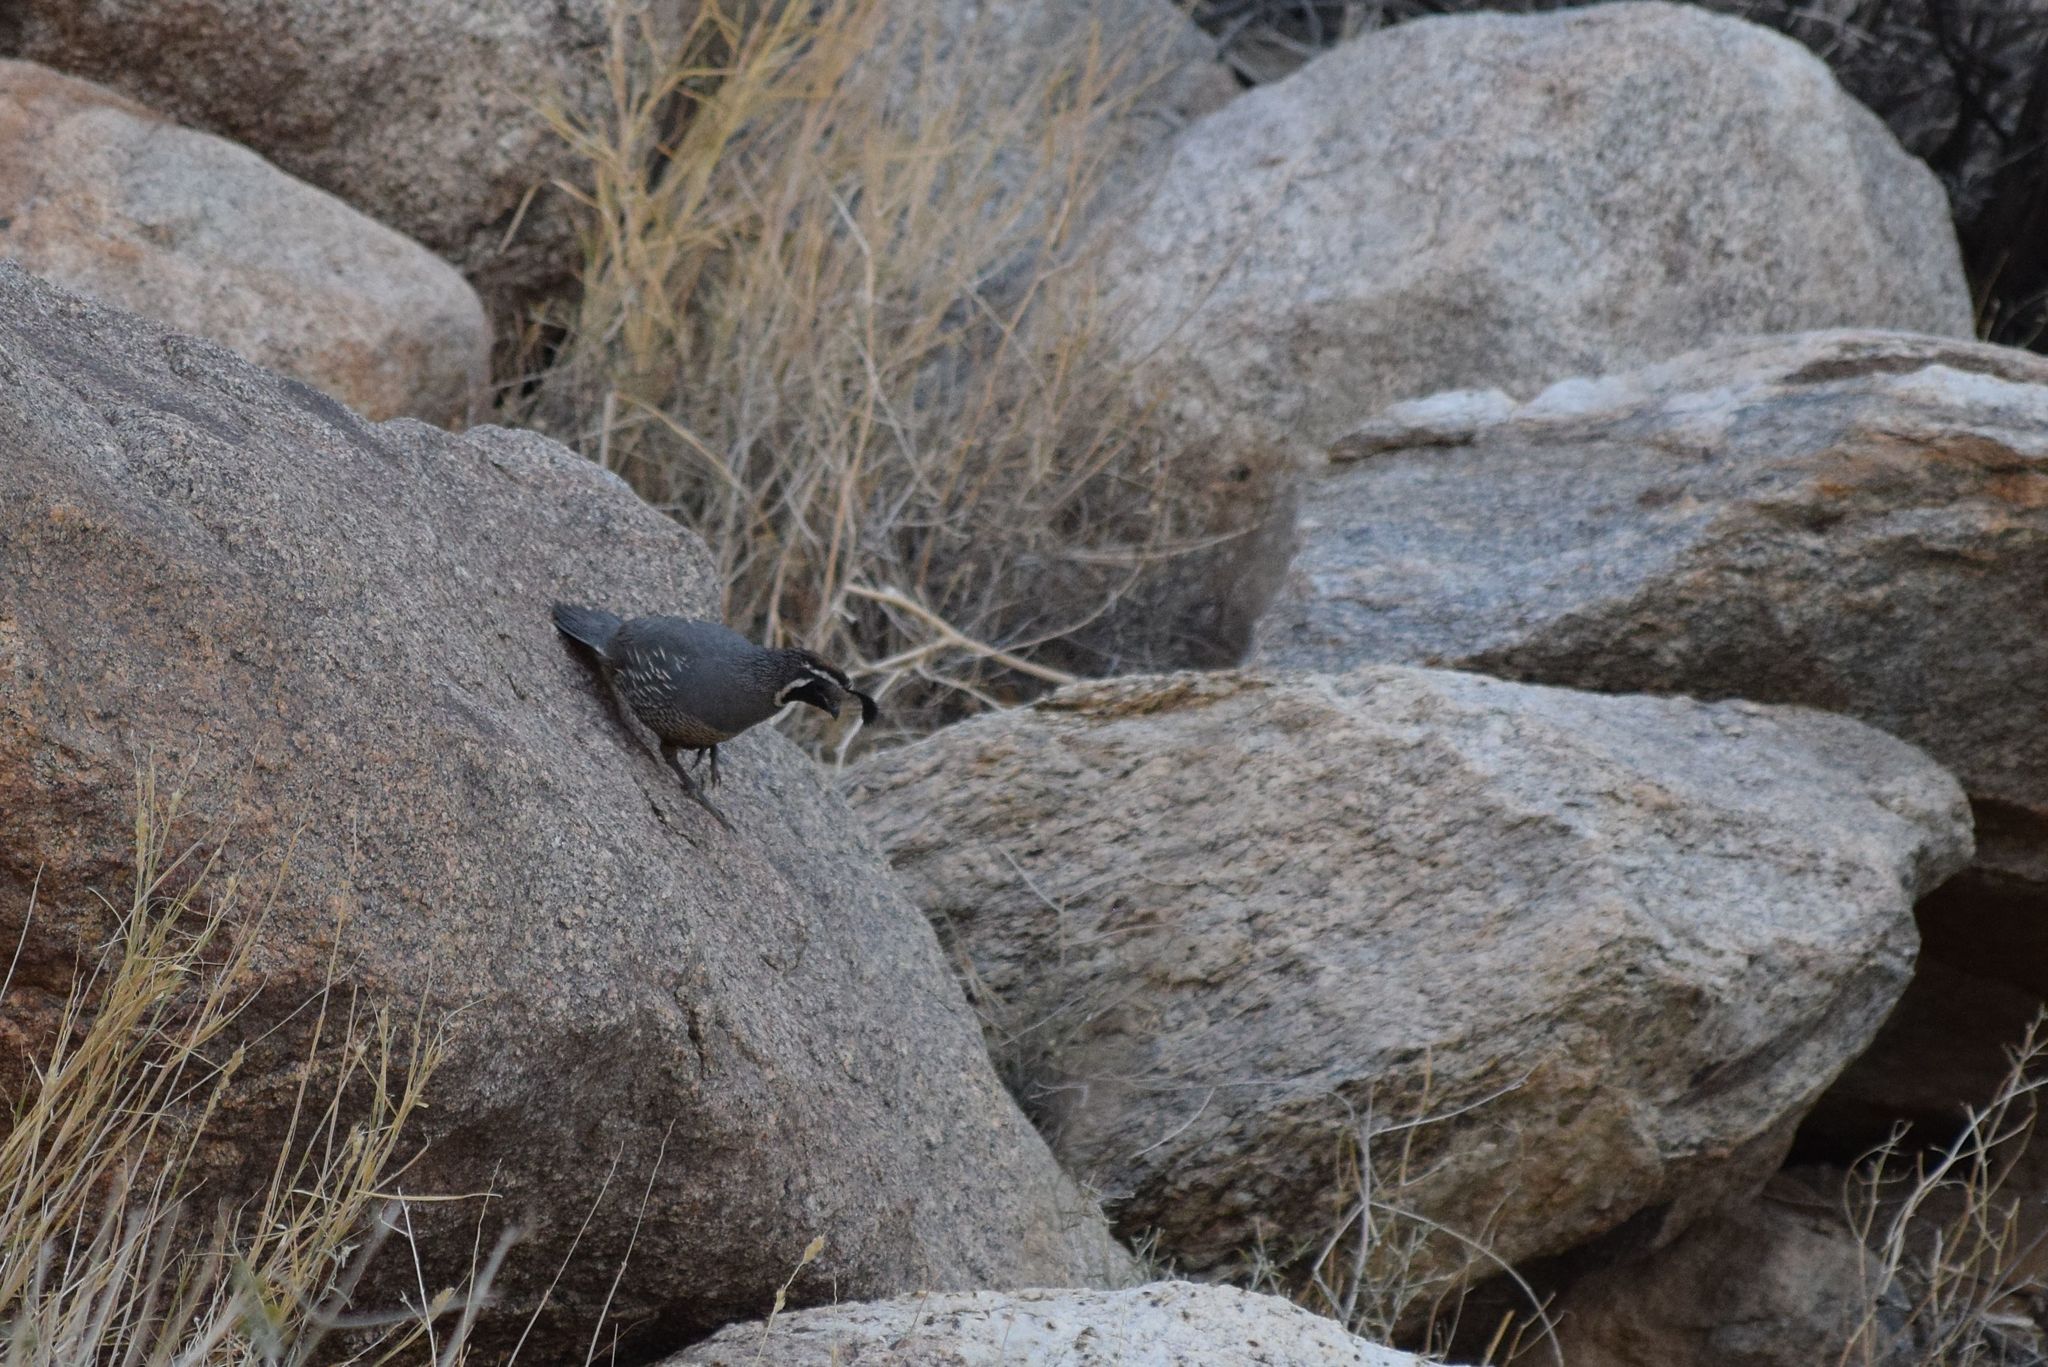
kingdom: Animalia
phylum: Chordata
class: Aves
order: Galliformes
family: Odontophoridae
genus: Callipepla
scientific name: Callipepla californica
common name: California quail
